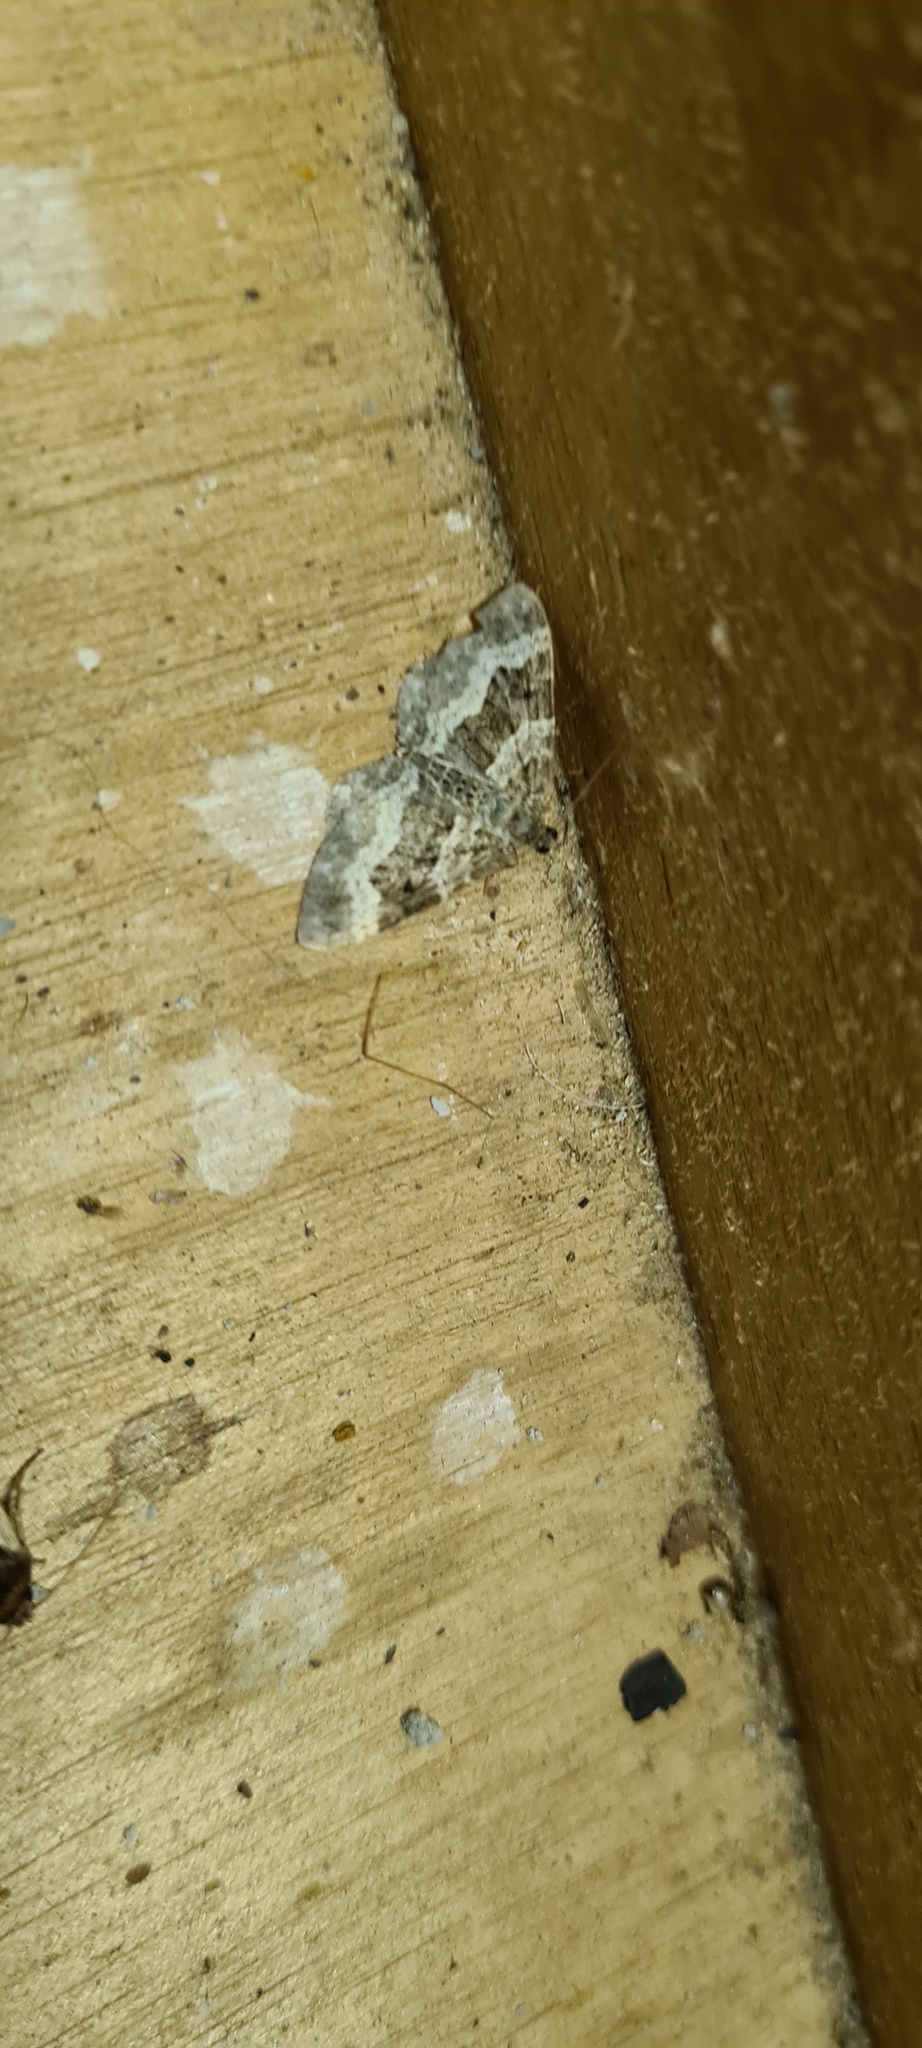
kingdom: Animalia
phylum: Arthropoda
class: Insecta
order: Lepidoptera
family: Geometridae
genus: Epirrhoe
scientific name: Epirrhoe alternata
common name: Common carpet
